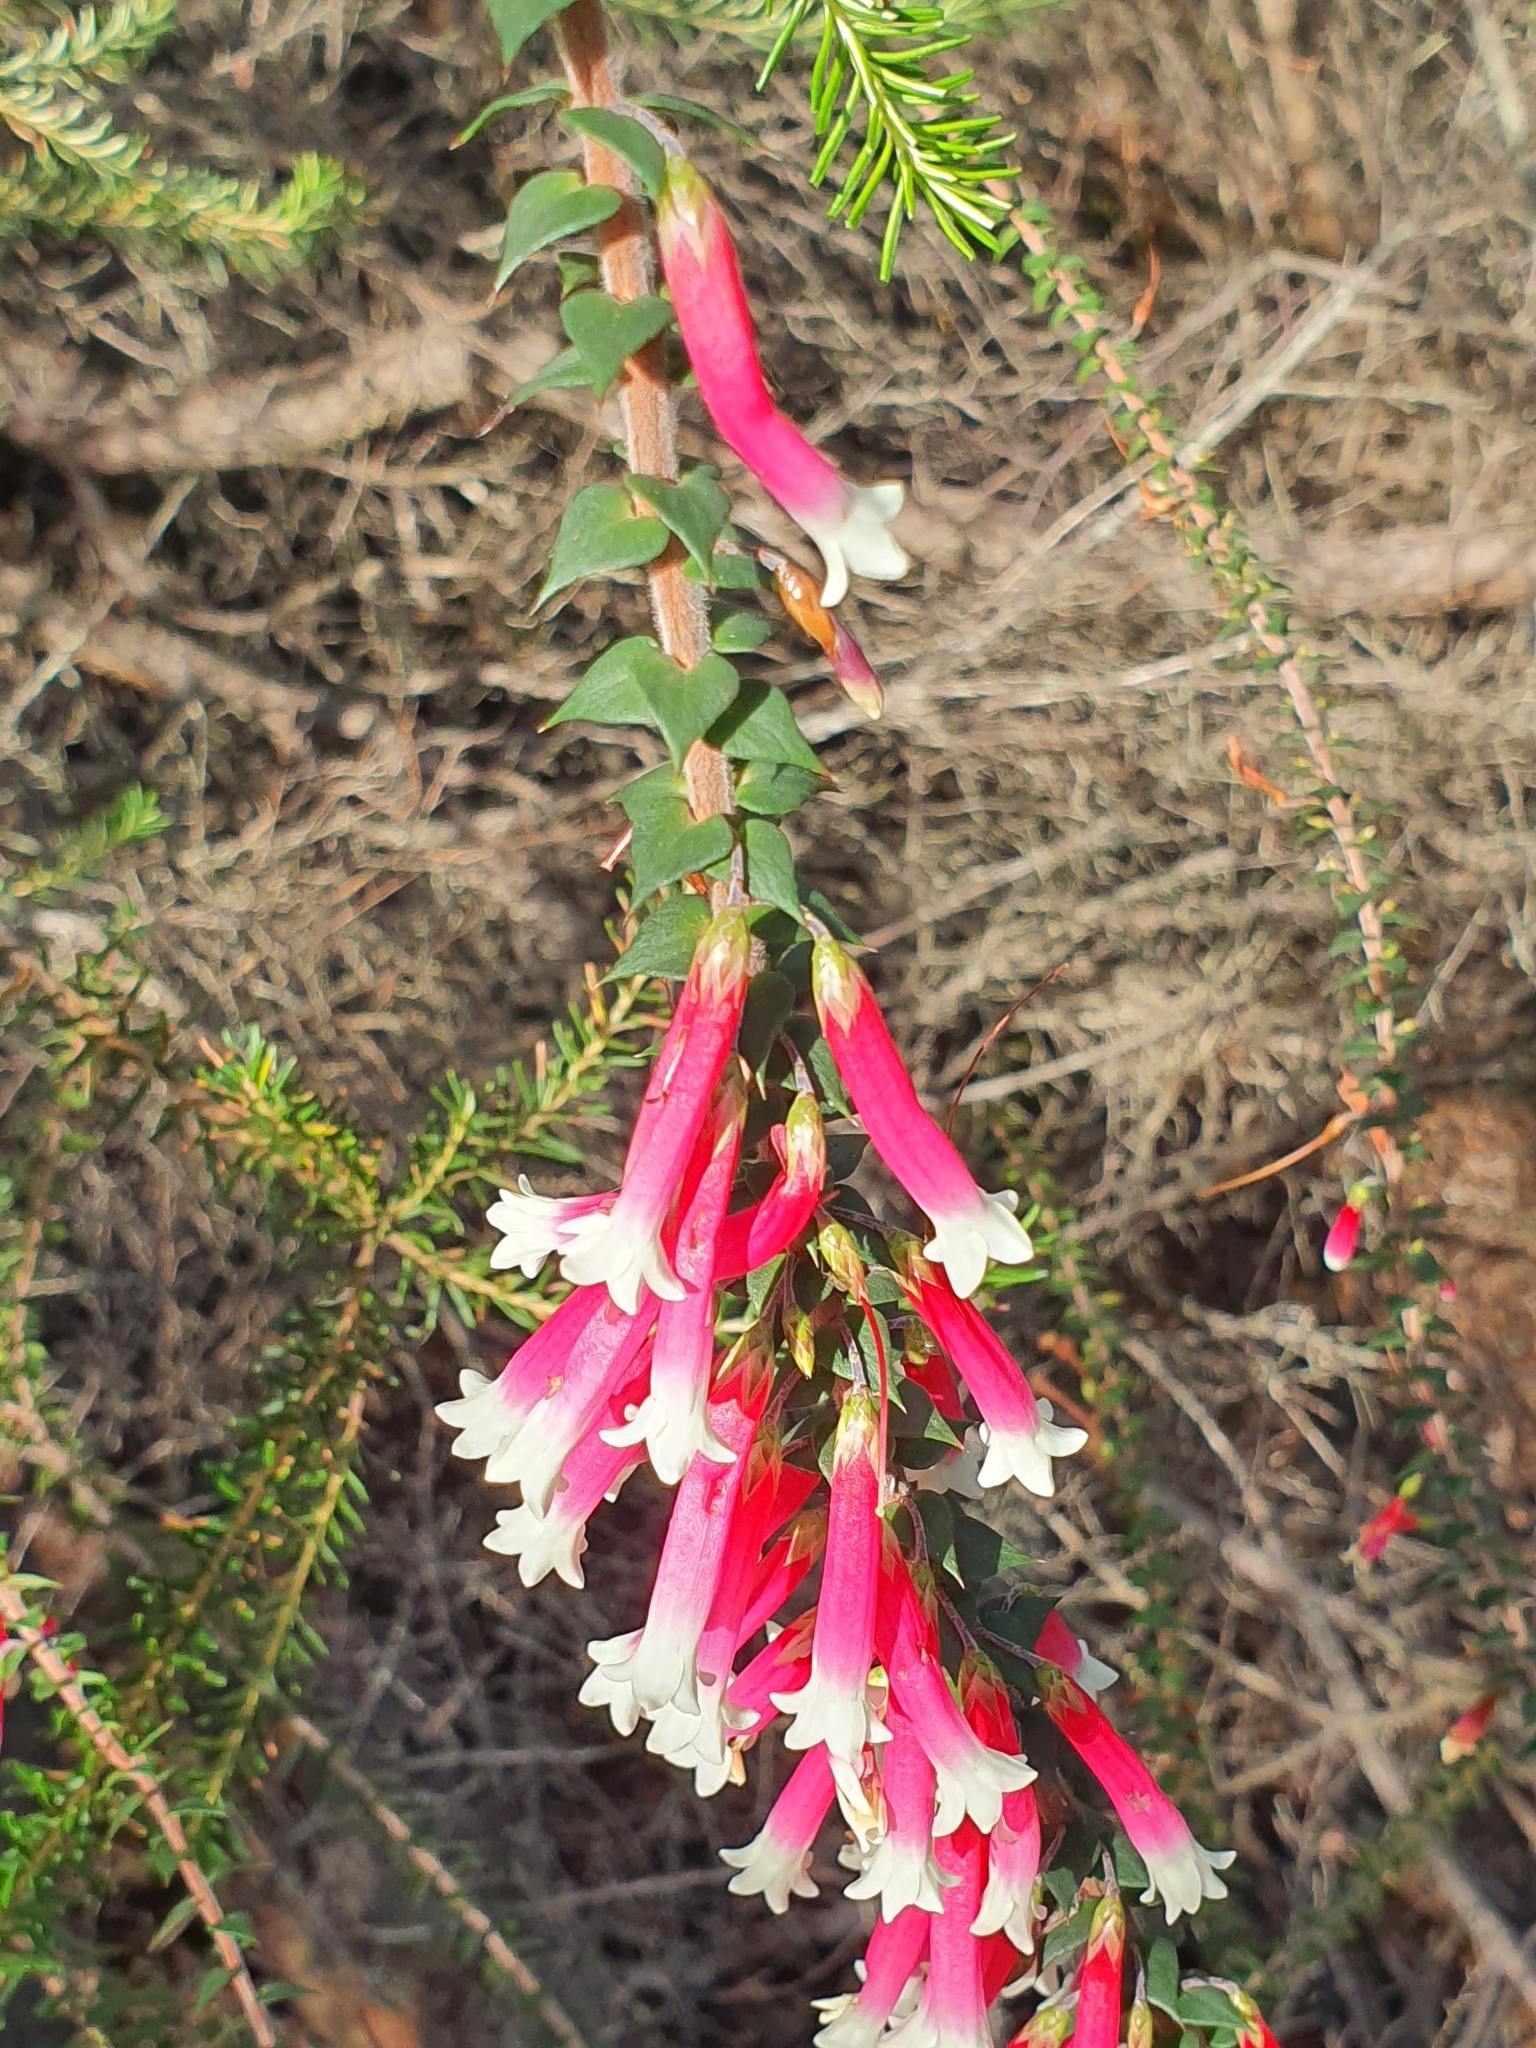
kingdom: Plantae
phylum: Tracheophyta
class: Magnoliopsida
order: Ericales
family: Ericaceae
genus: Epacris
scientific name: Epacris longiflora
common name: Fuchsia-heath
